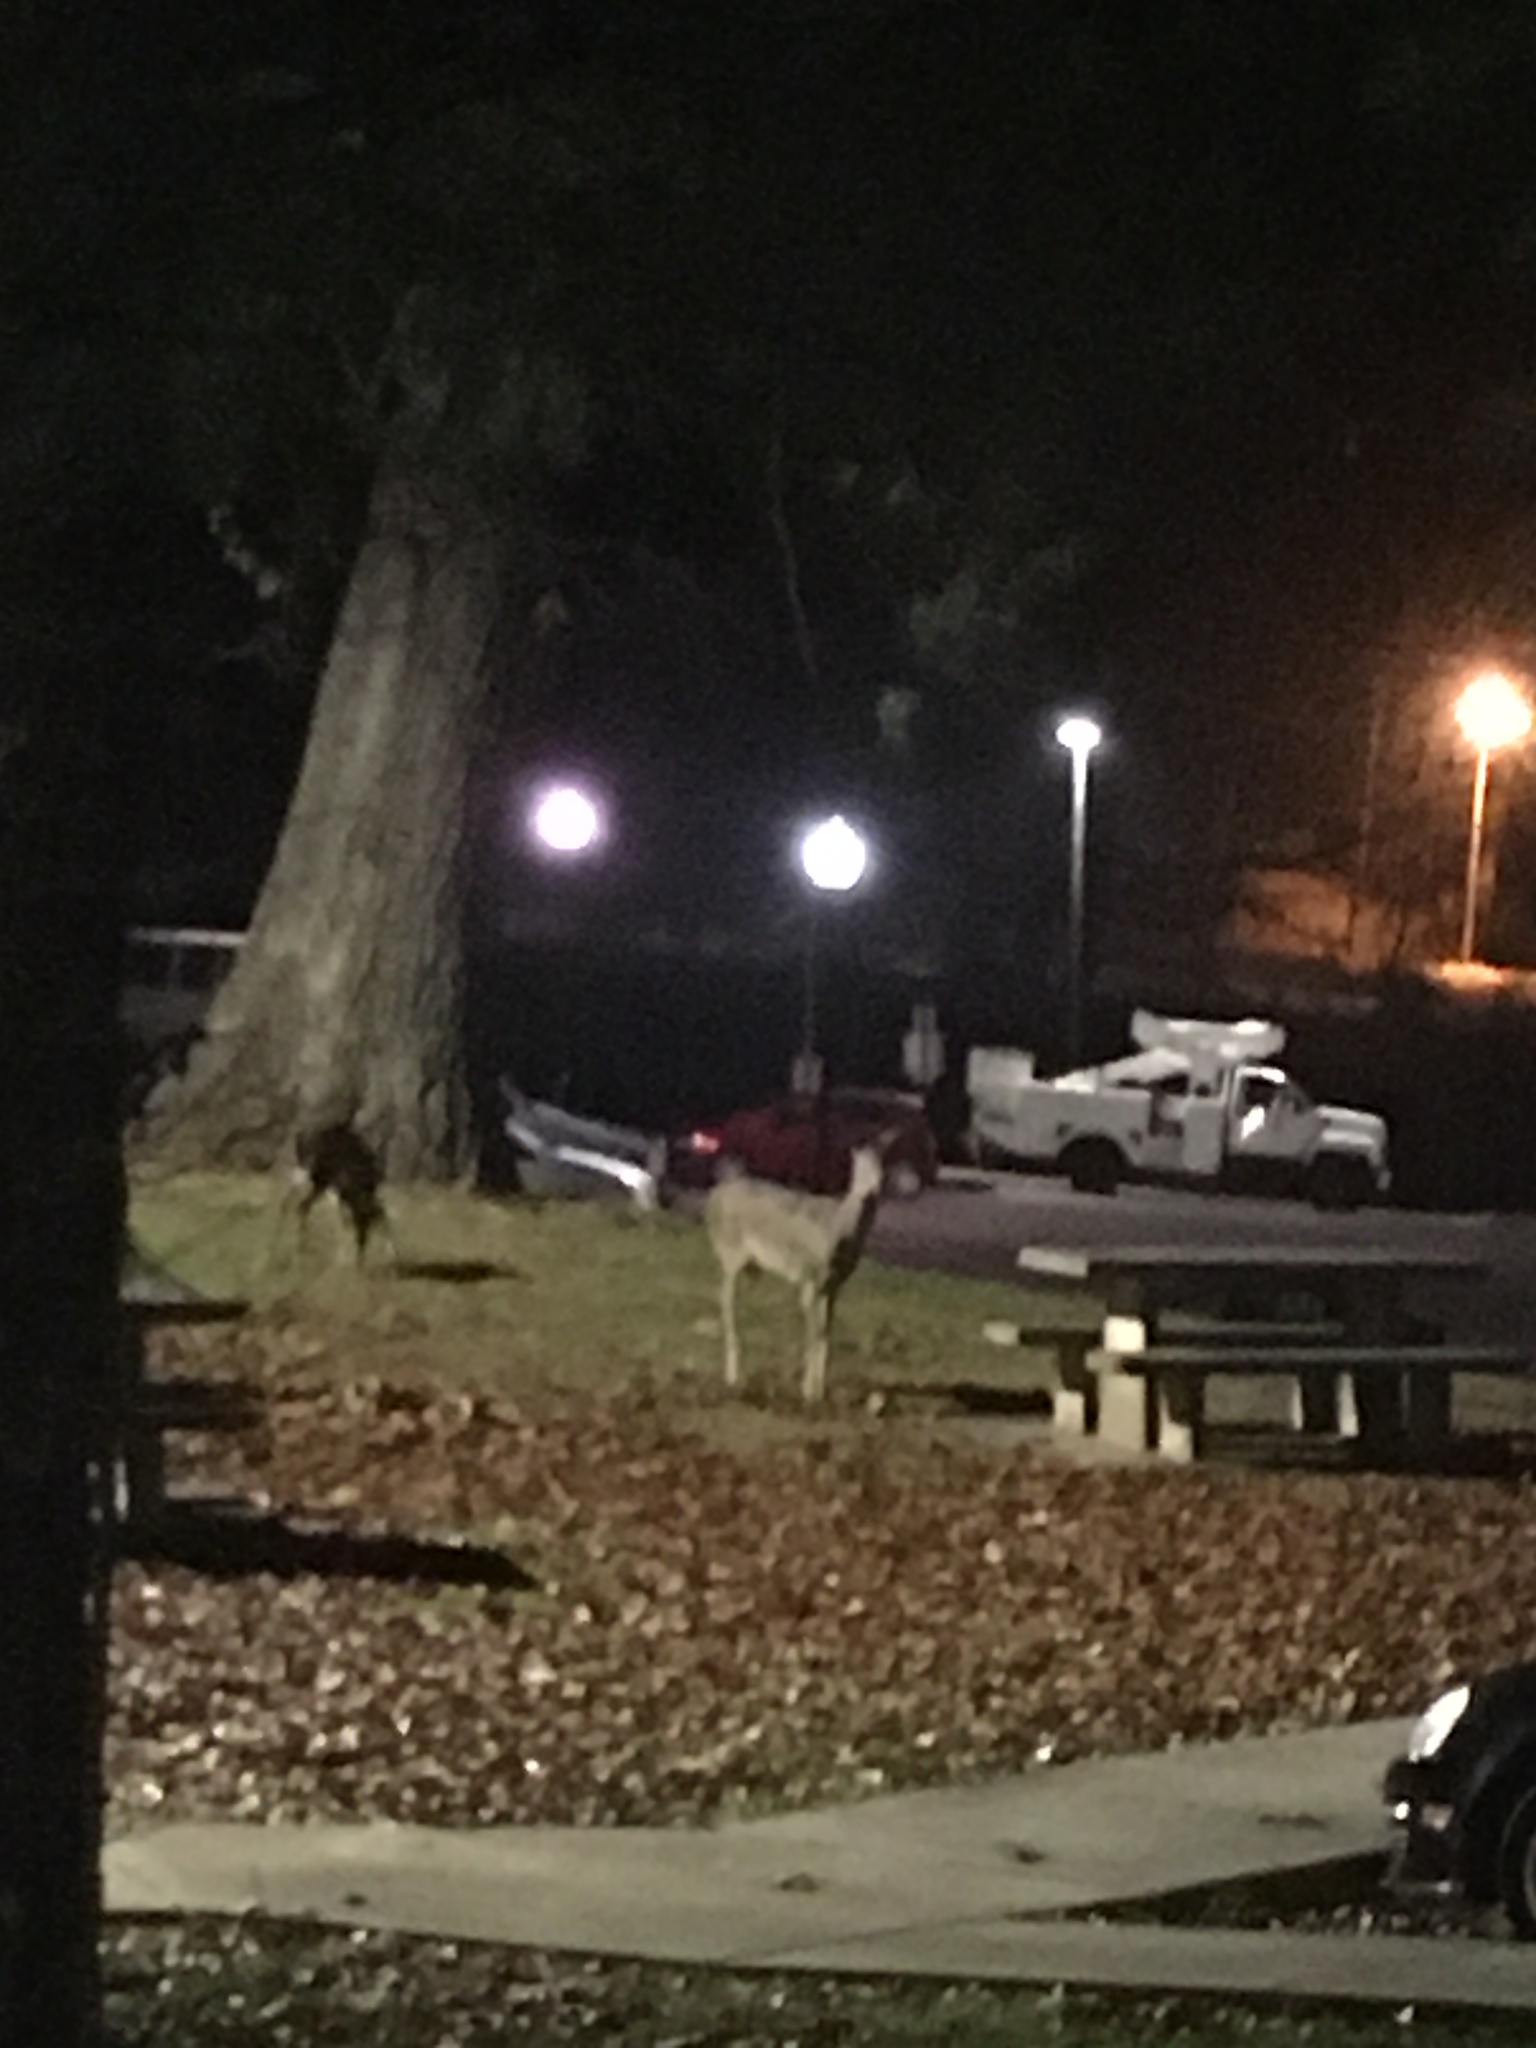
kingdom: Animalia
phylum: Chordata
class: Mammalia
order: Artiodactyla
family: Cervidae
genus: Odocoileus
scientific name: Odocoileus virginianus
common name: White-tailed deer
